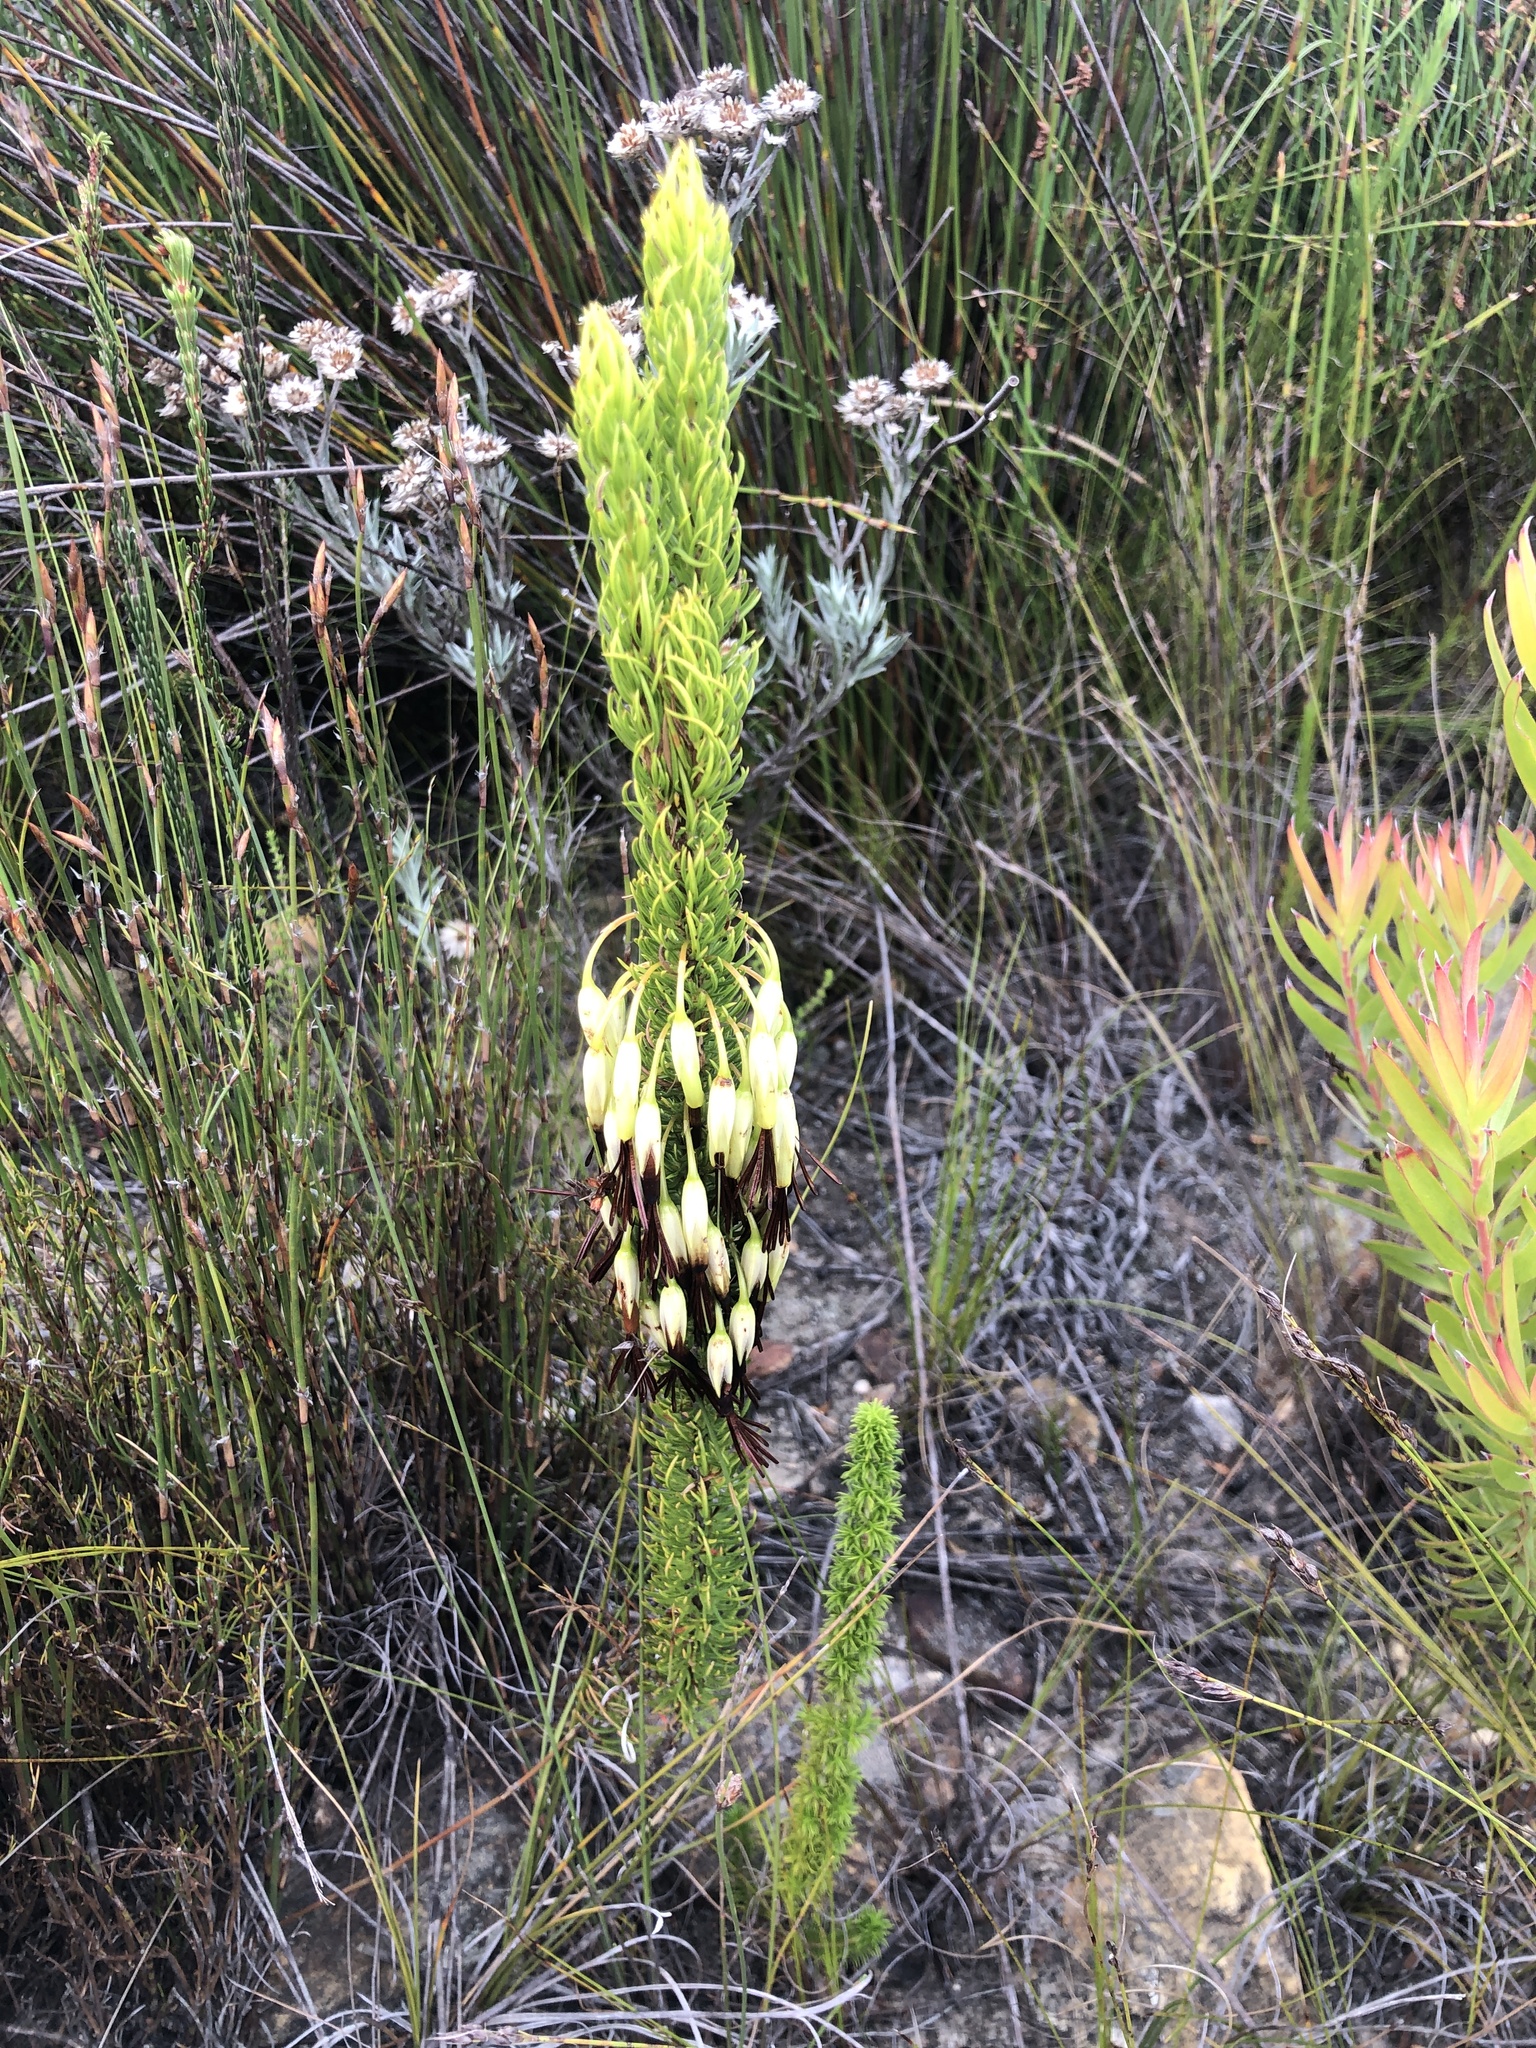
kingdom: Plantae
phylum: Tracheophyta
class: Magnoliopsida
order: Ericales
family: Ericaceae
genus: Erica
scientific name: Erica plukenetii
